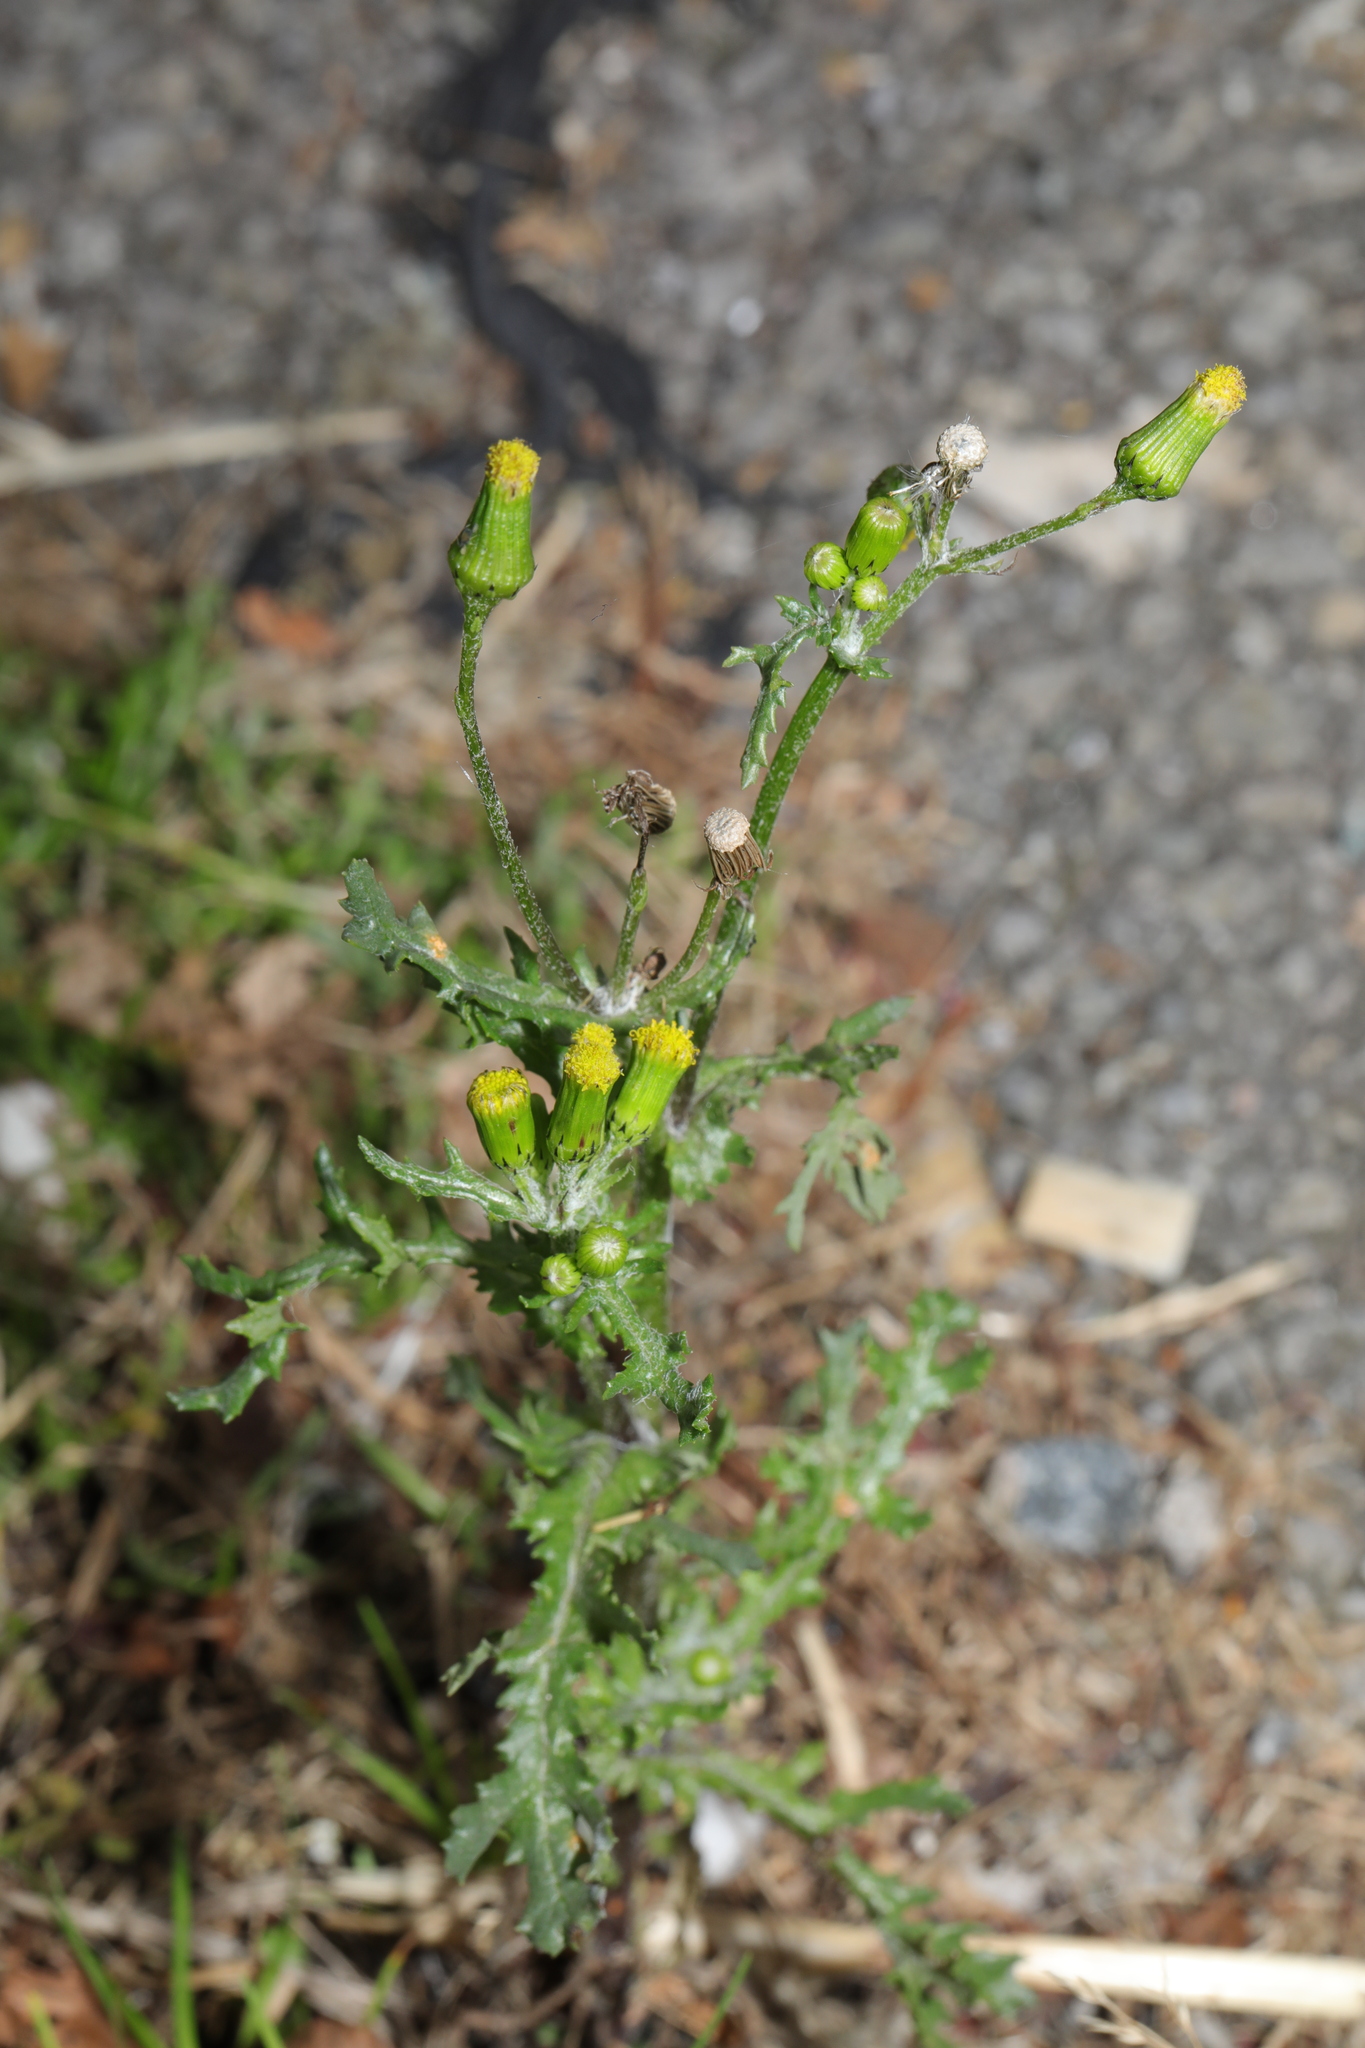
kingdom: Plantae
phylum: Tracheophyta
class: Magnoliopsida
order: Asterales
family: Asteraceae
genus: Senecio
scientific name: Senecio vulgaris
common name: Old-man-in-the-spring
